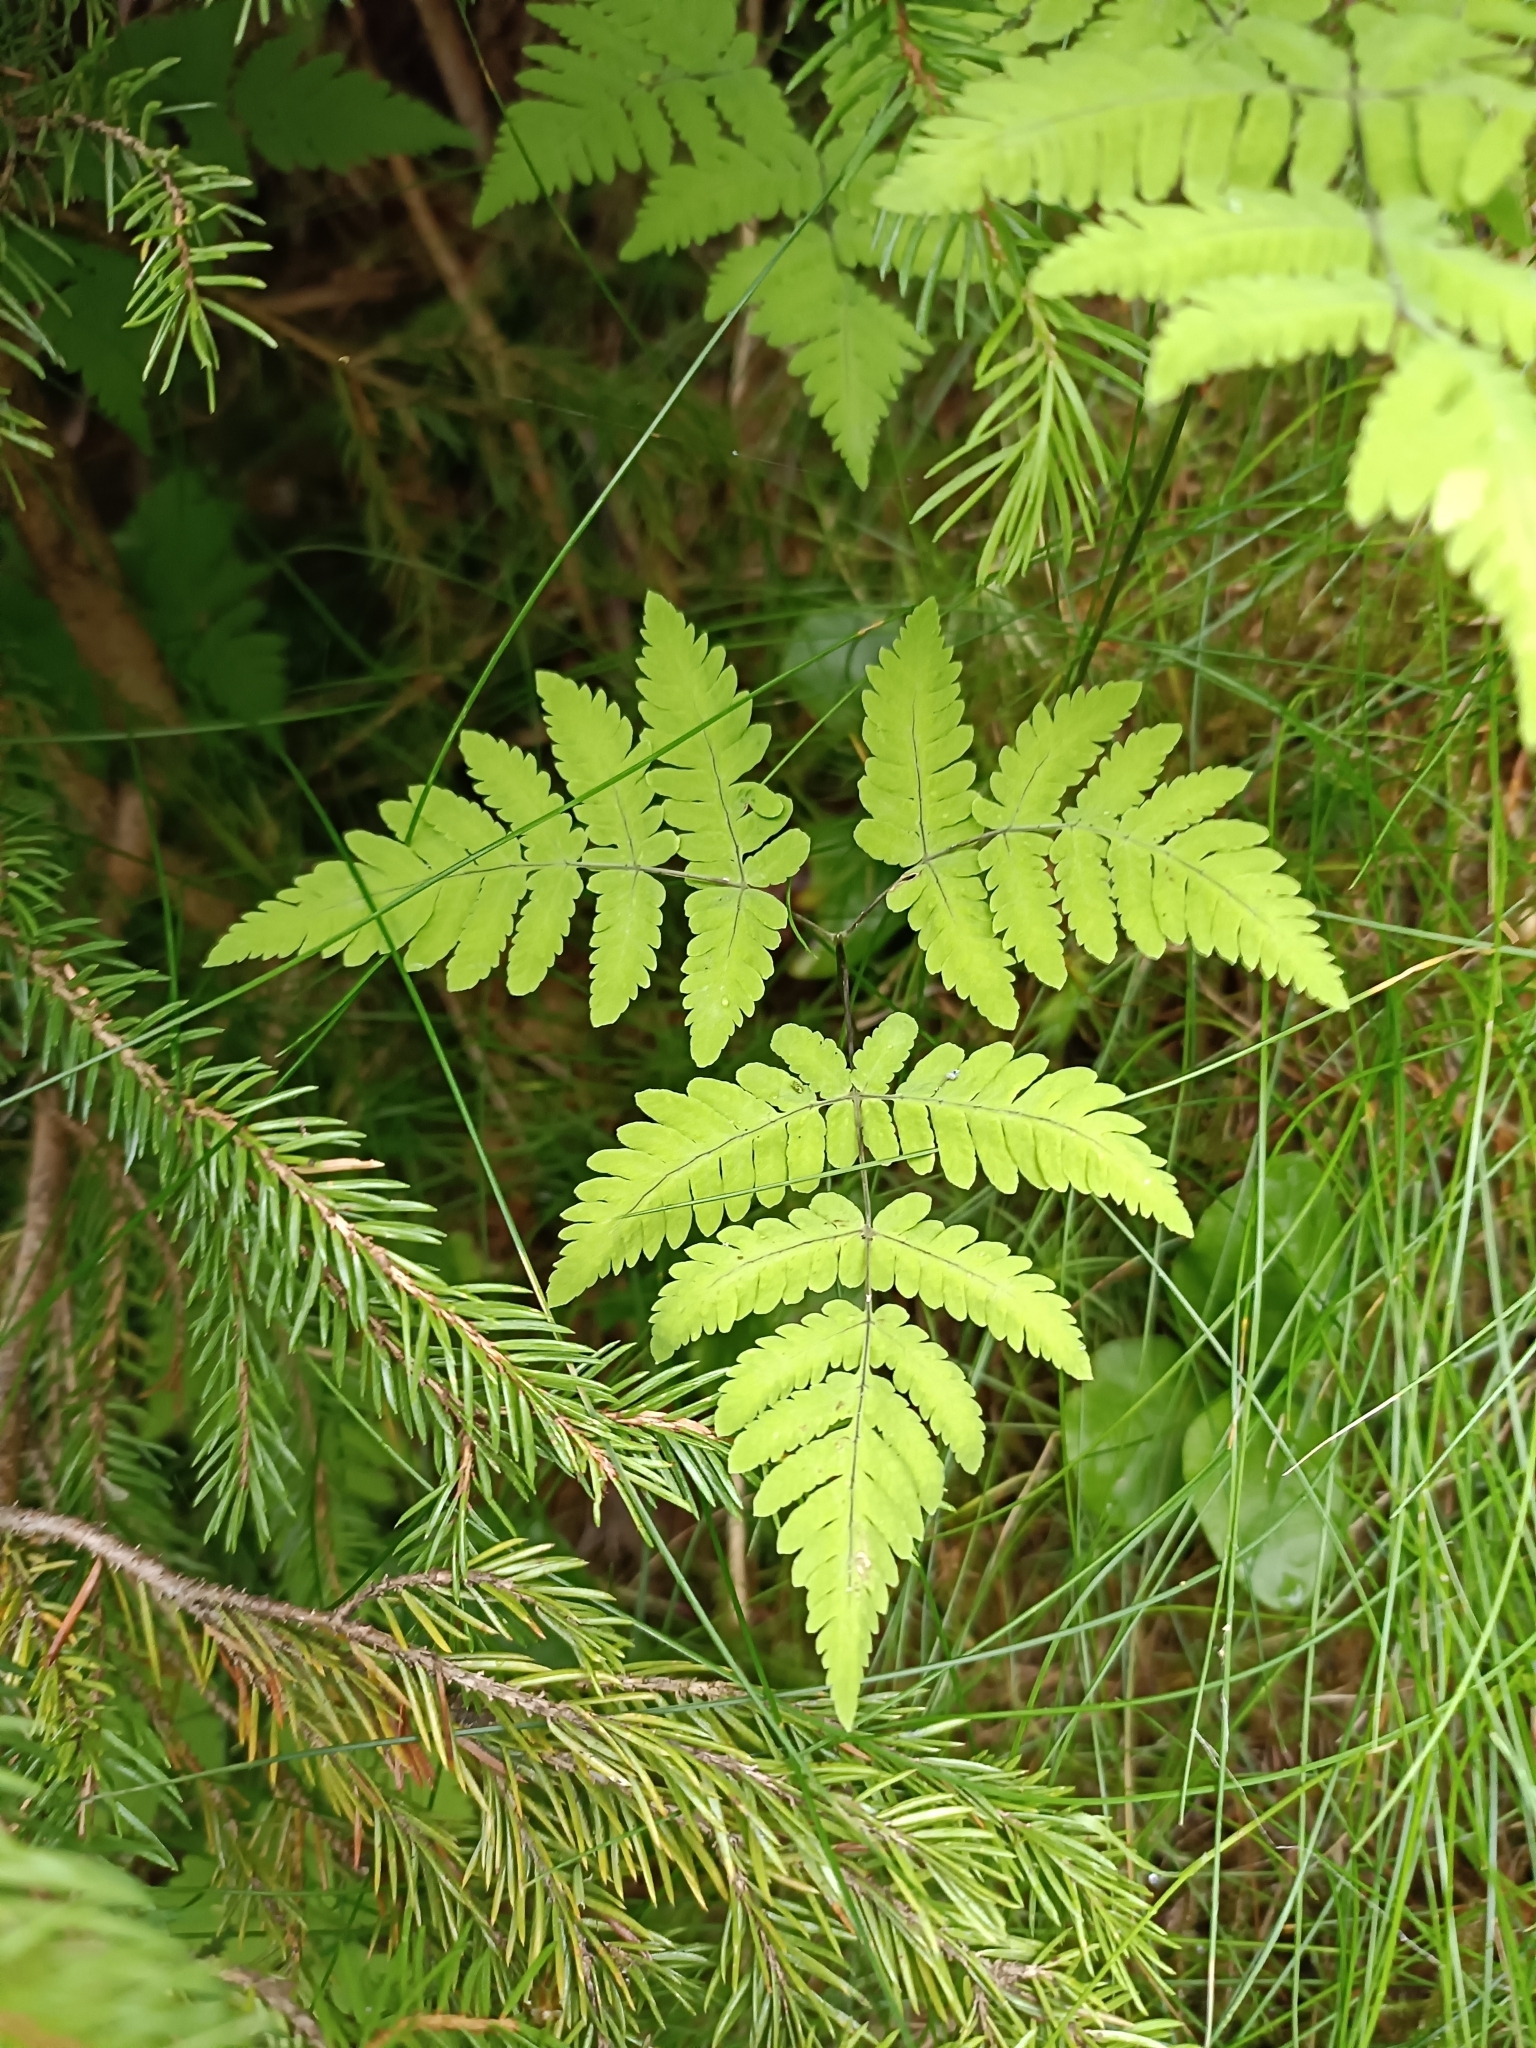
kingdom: Plantae
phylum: Tracheophyta
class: Polypodiopsida
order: Polypodiales
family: Cystopteridaceae
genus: Gymnocarpium
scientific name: Gymnocarpium dryopteris
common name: Oak fern
